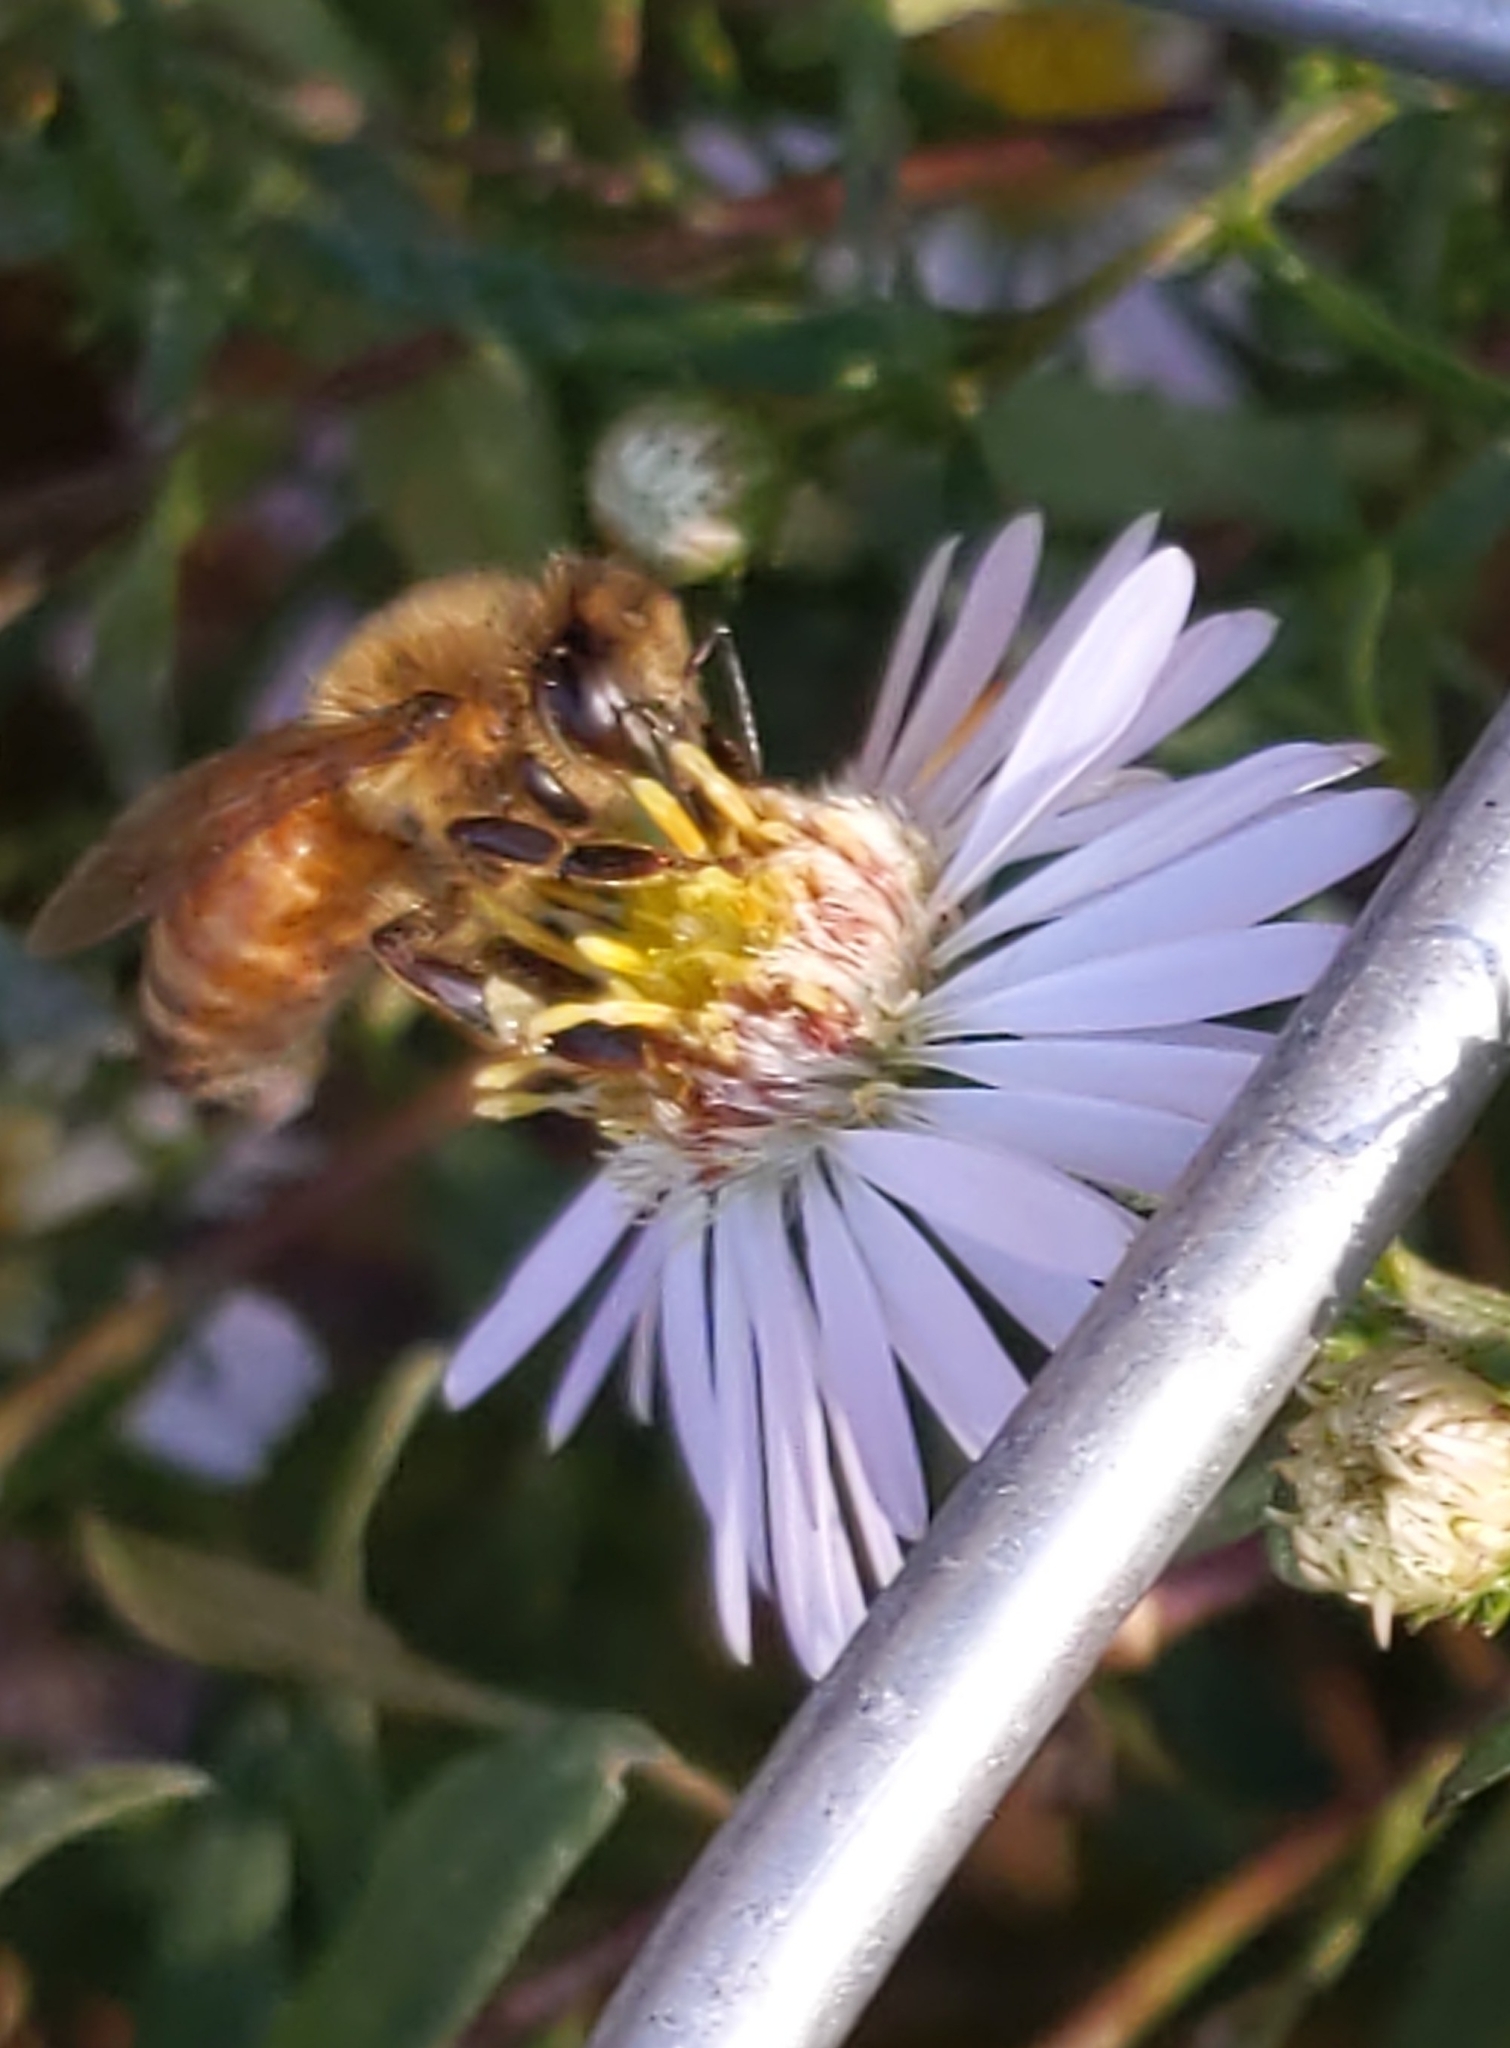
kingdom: Animalia
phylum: Arthropoda
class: Insecta
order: Hymenoptera
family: Apidae
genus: Apis
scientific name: Apis mellifera
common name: Honey bee
